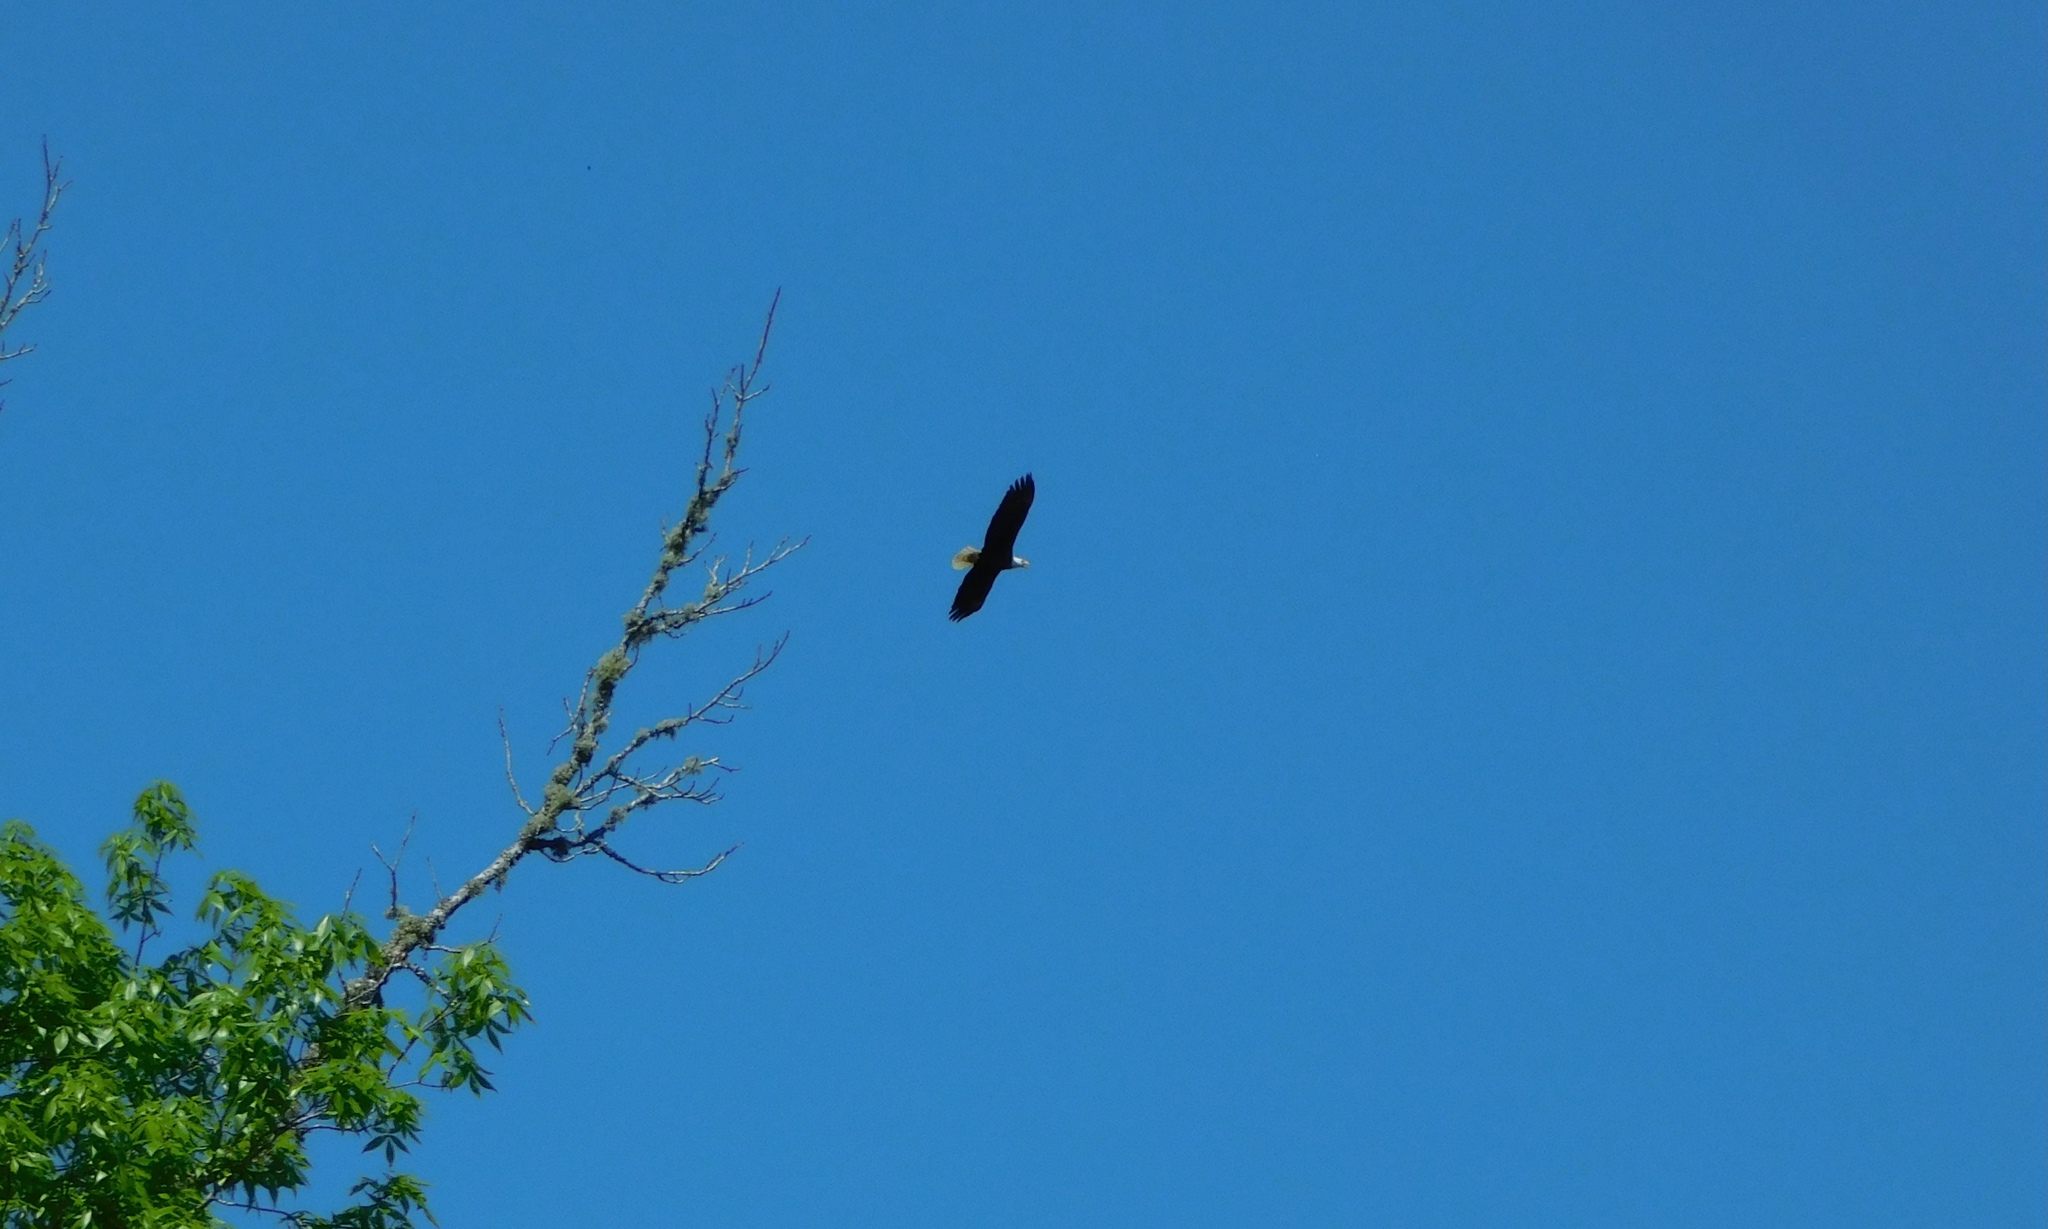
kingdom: Animalia
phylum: Chordata
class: Aves
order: Accipitriformes
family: Accipitridae
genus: Haliaeetus
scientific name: Haliaeetus leucocephalus
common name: Bald eagle
